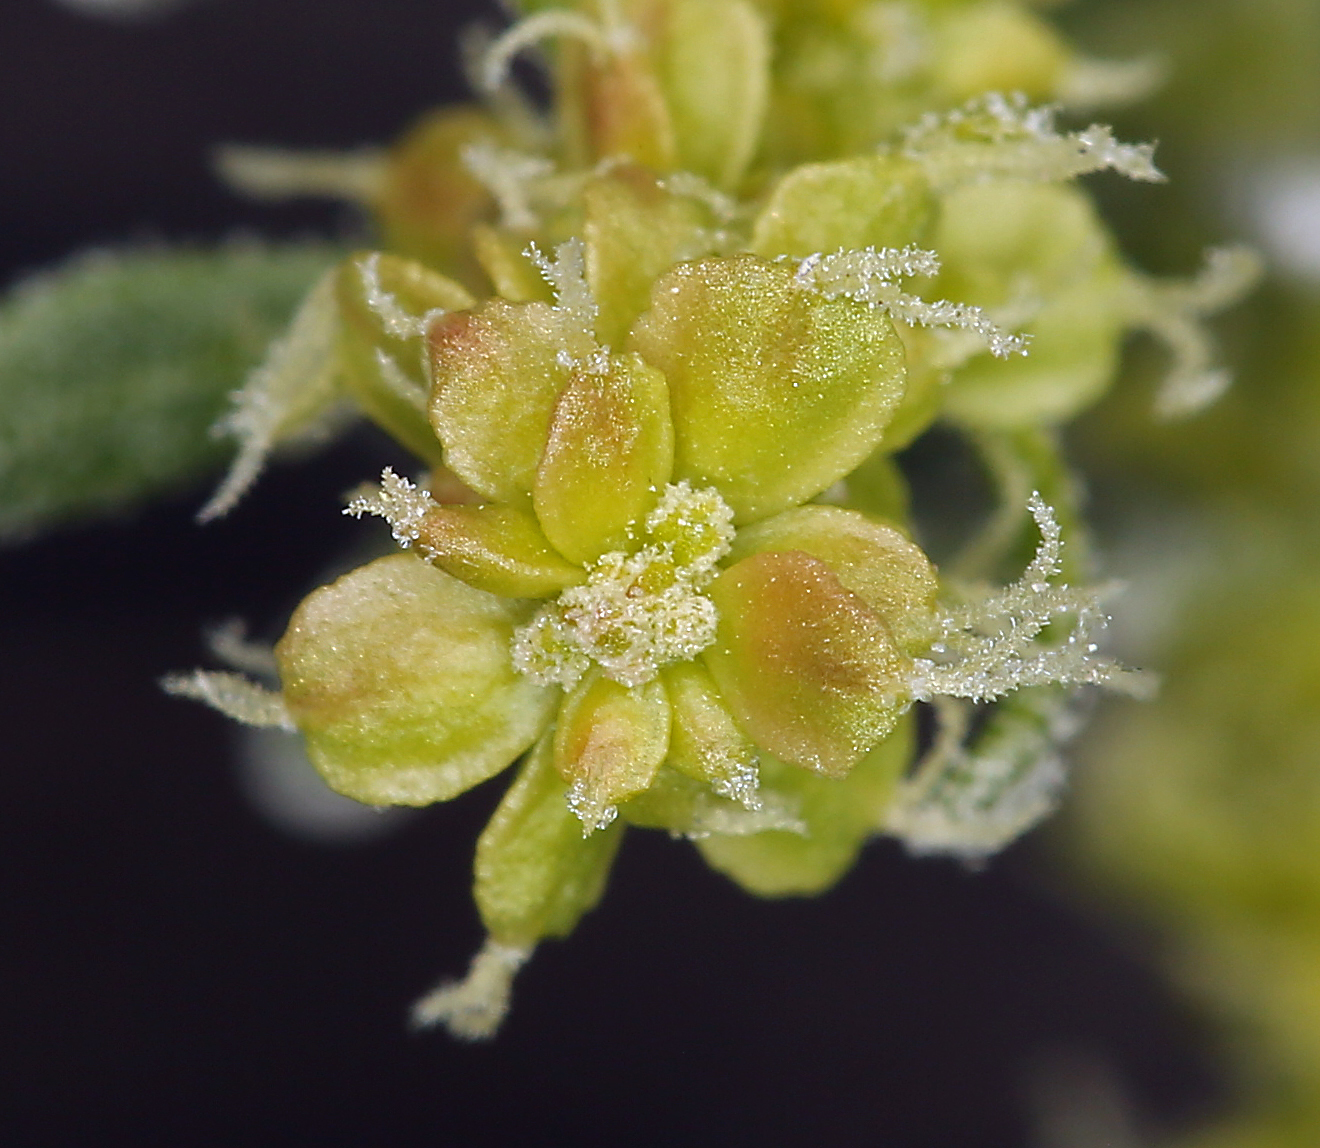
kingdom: Plantae
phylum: Tracheophyta
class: Magnoliopsida
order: Caryophyllales
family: Amaranthaceae
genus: Grayia
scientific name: Grayia spinosa
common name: Spiny hopsage
